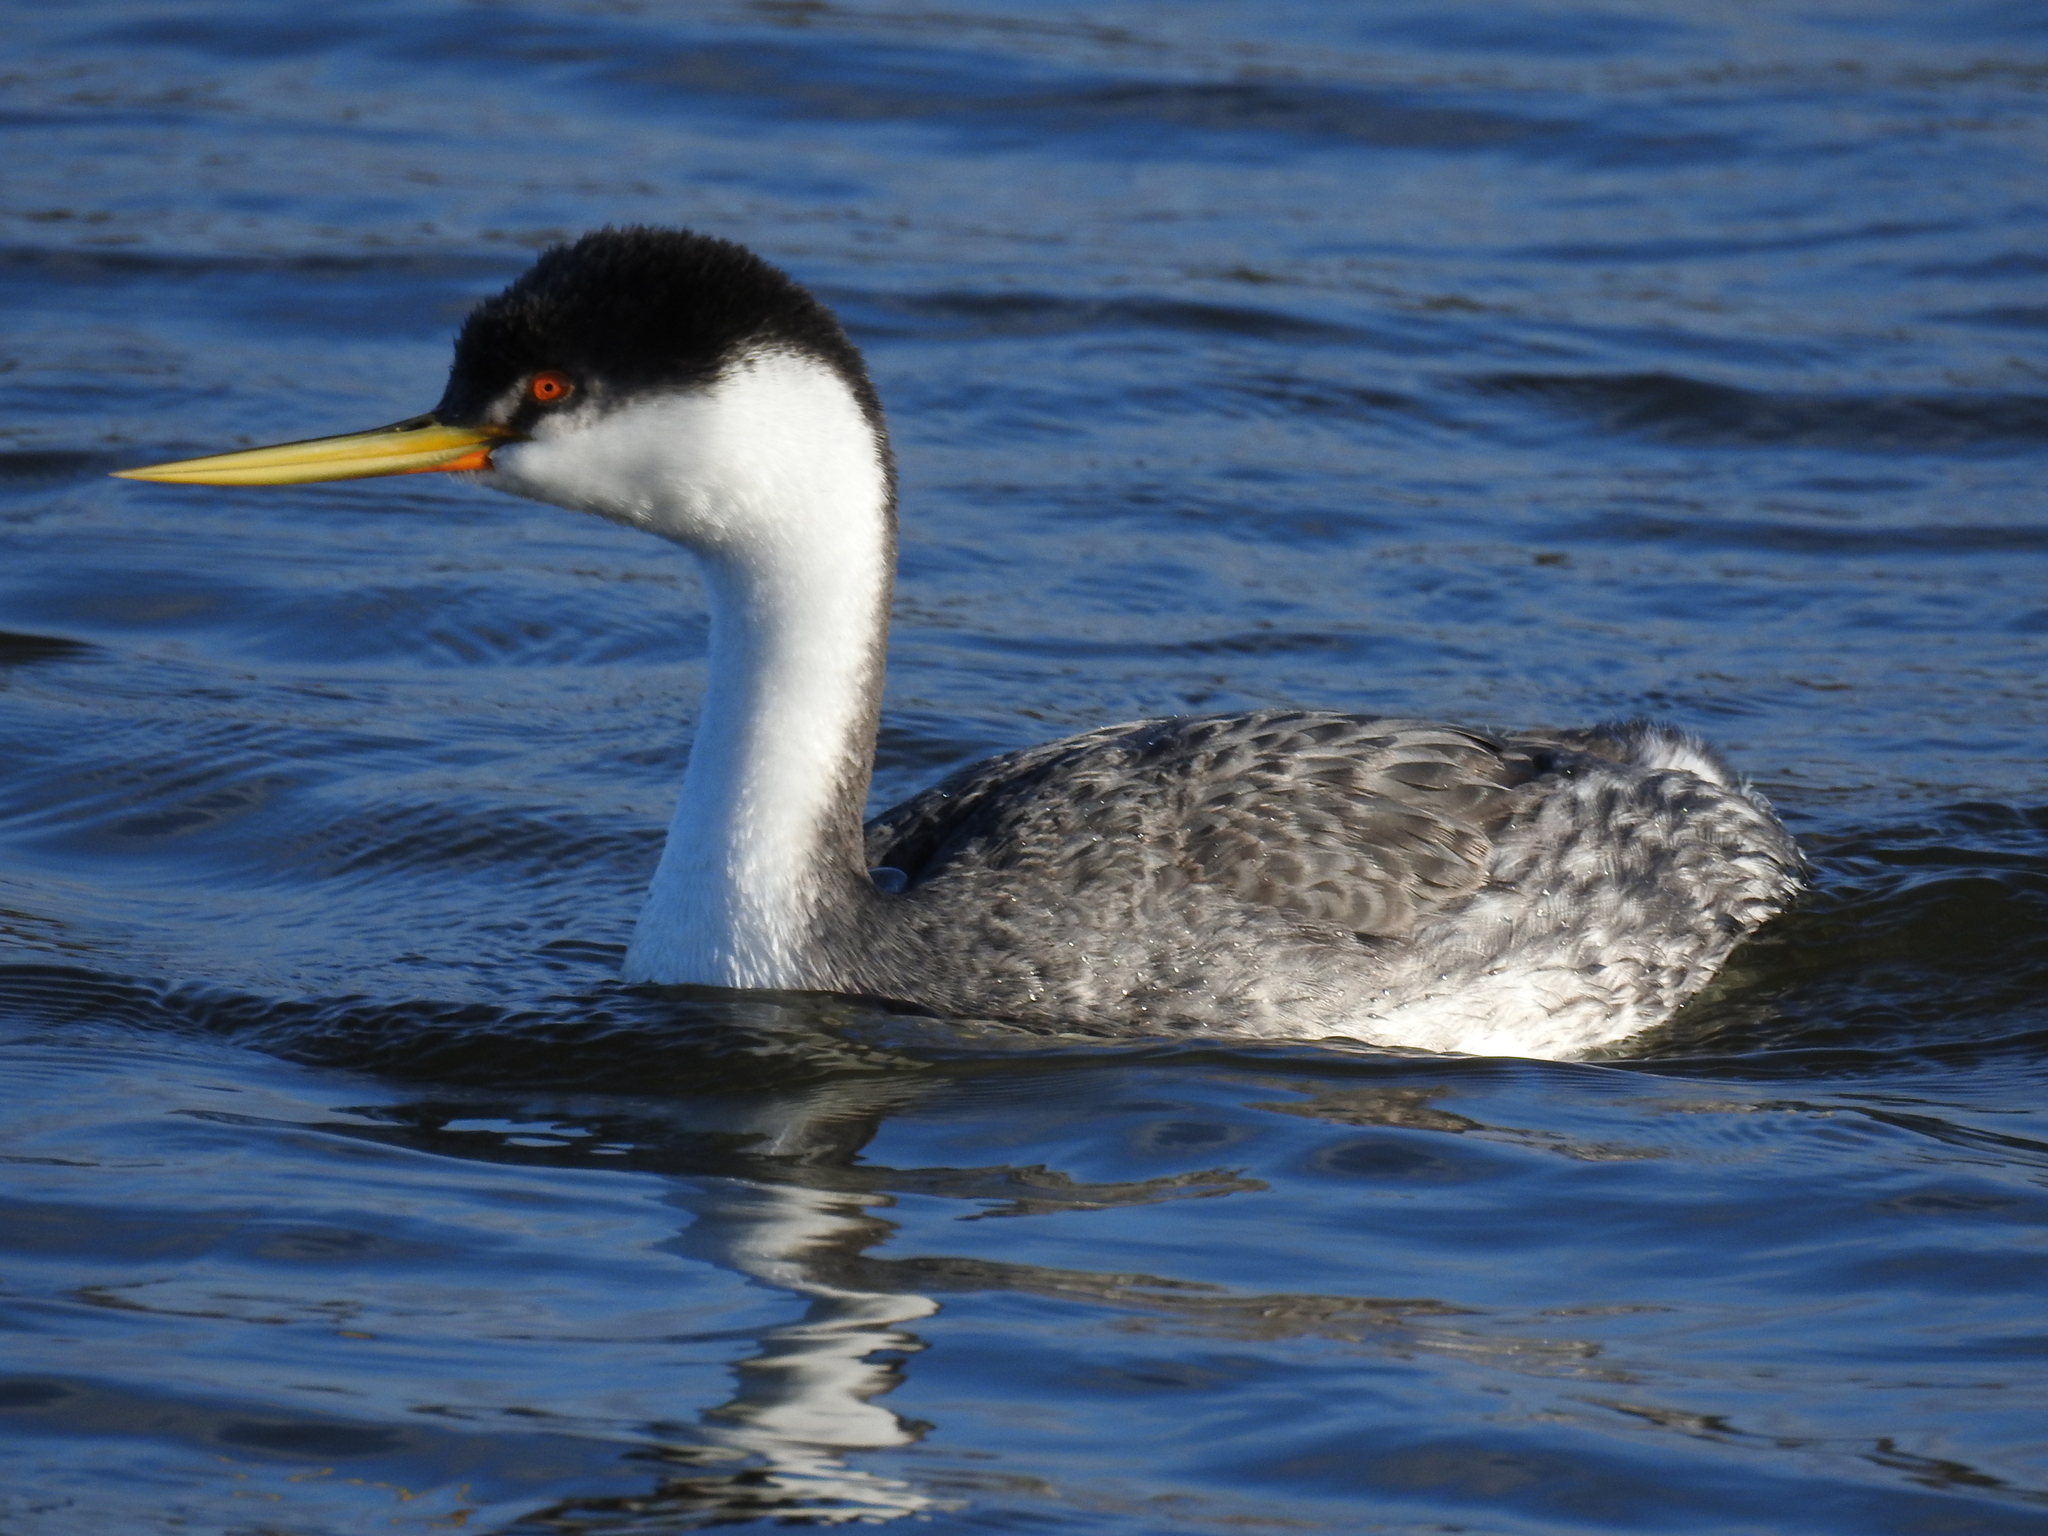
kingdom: Animalia
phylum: Chordata
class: Aves
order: Podicipediformes
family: Podicipedidae
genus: Aechmophorus
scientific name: Aechmophorus occidentalis
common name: Western grebe
